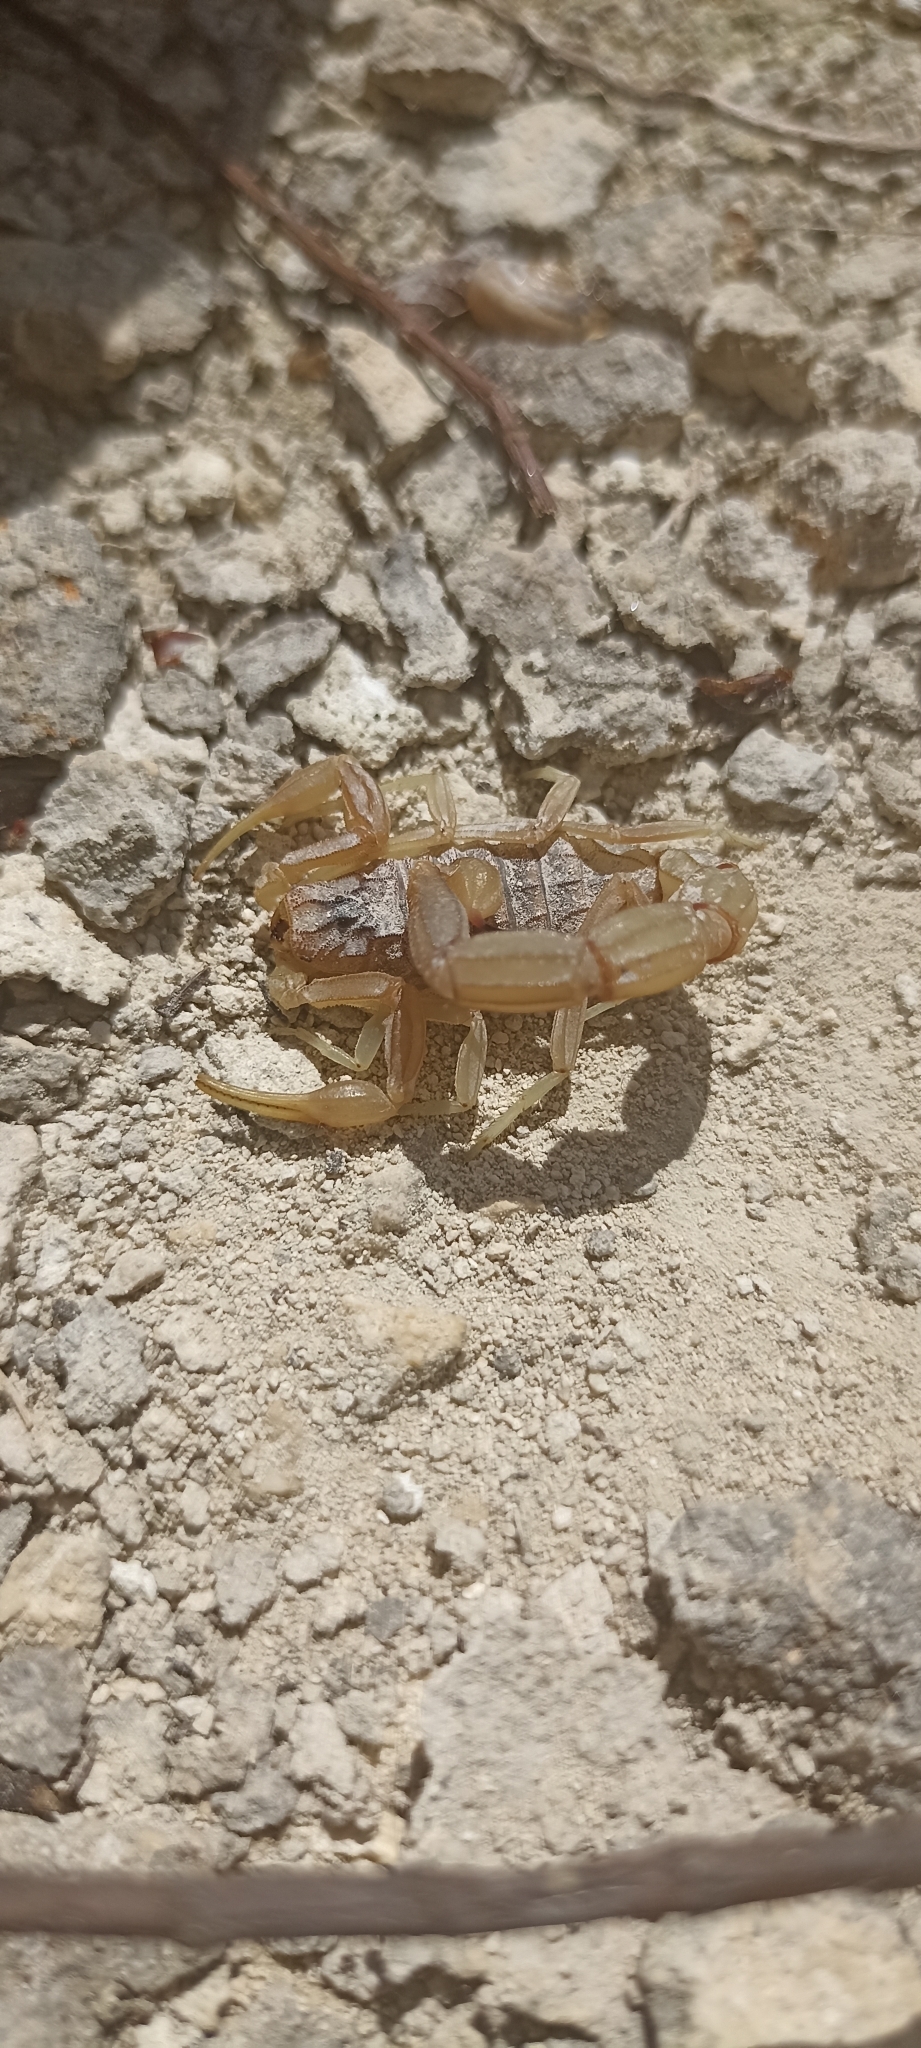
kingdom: Animalia
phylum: Arthropoda
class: Arachnida
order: Scorpiones
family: Buthidae
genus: Buthus
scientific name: Buthus occitanus
